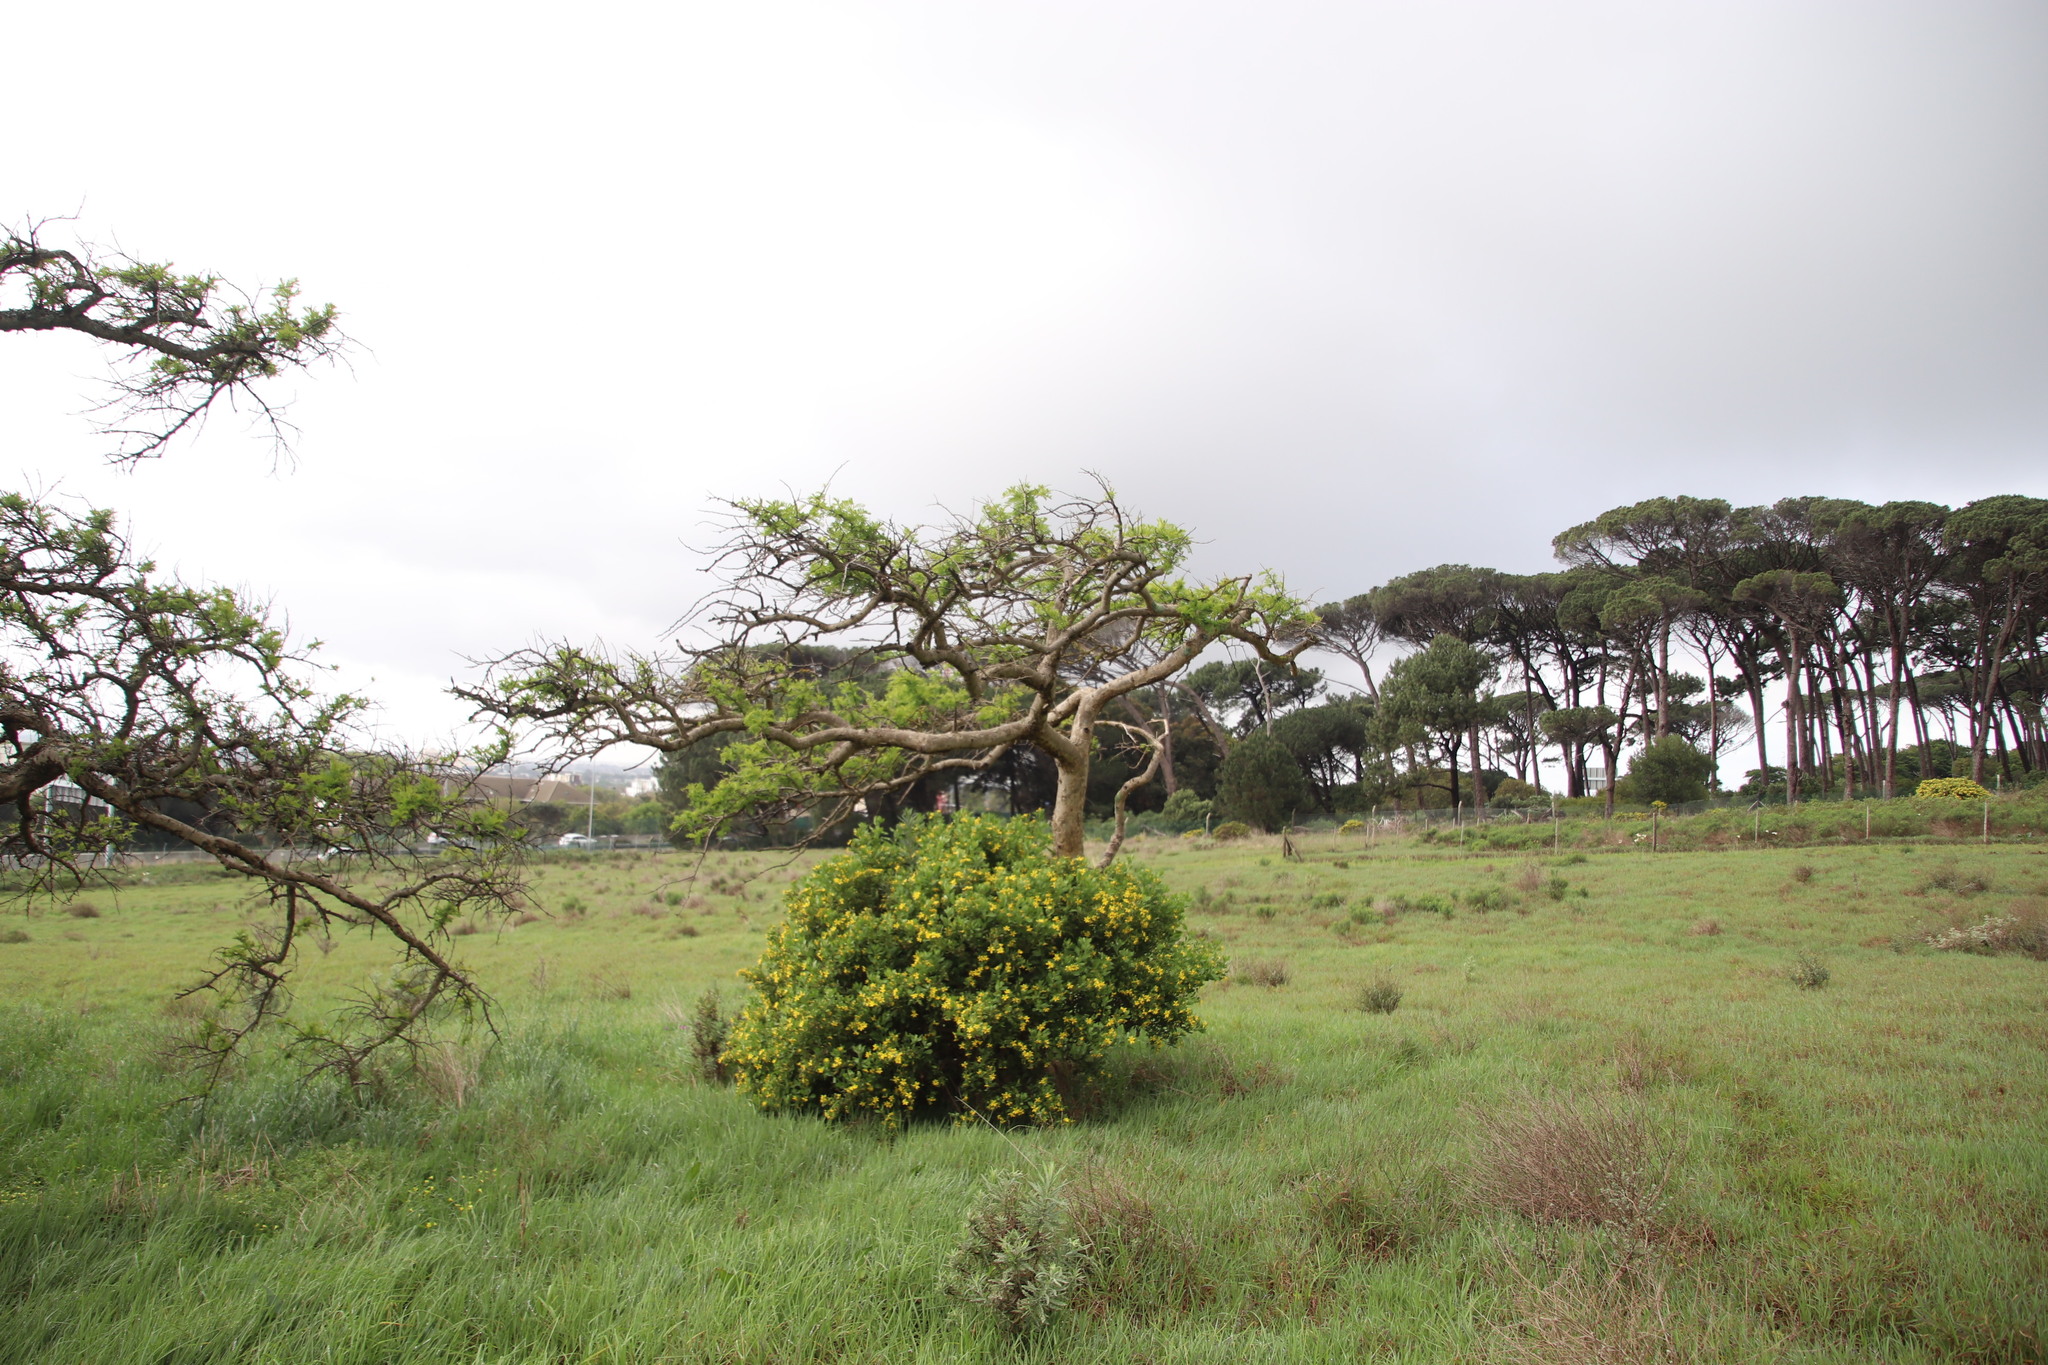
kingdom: Plantae
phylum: Tracheophyta
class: Magnoliopsida
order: Asterales
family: Asteraceae
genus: Osteospermum
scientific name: Osteospermum moniliferum
